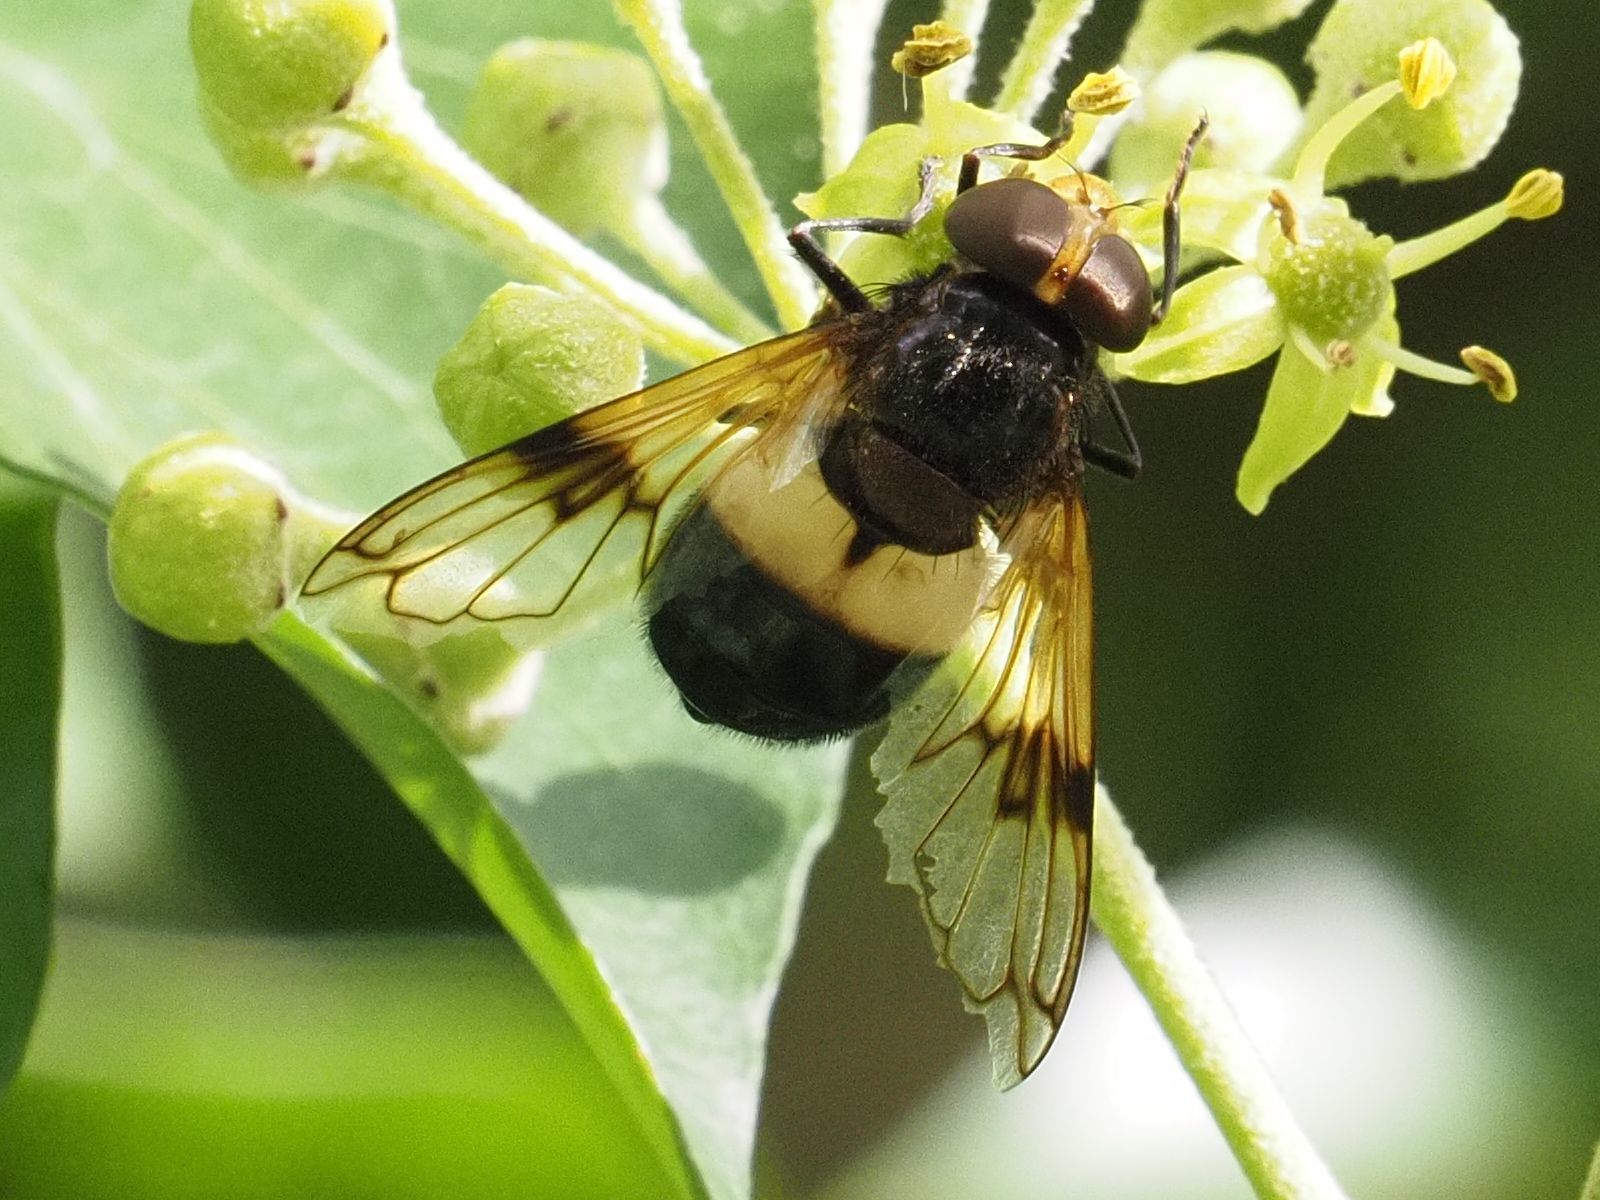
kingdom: Animalia
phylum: Arthropoda
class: Insecta
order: Diptera
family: Syrphidae
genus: Volucella
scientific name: Volucella pellucens
